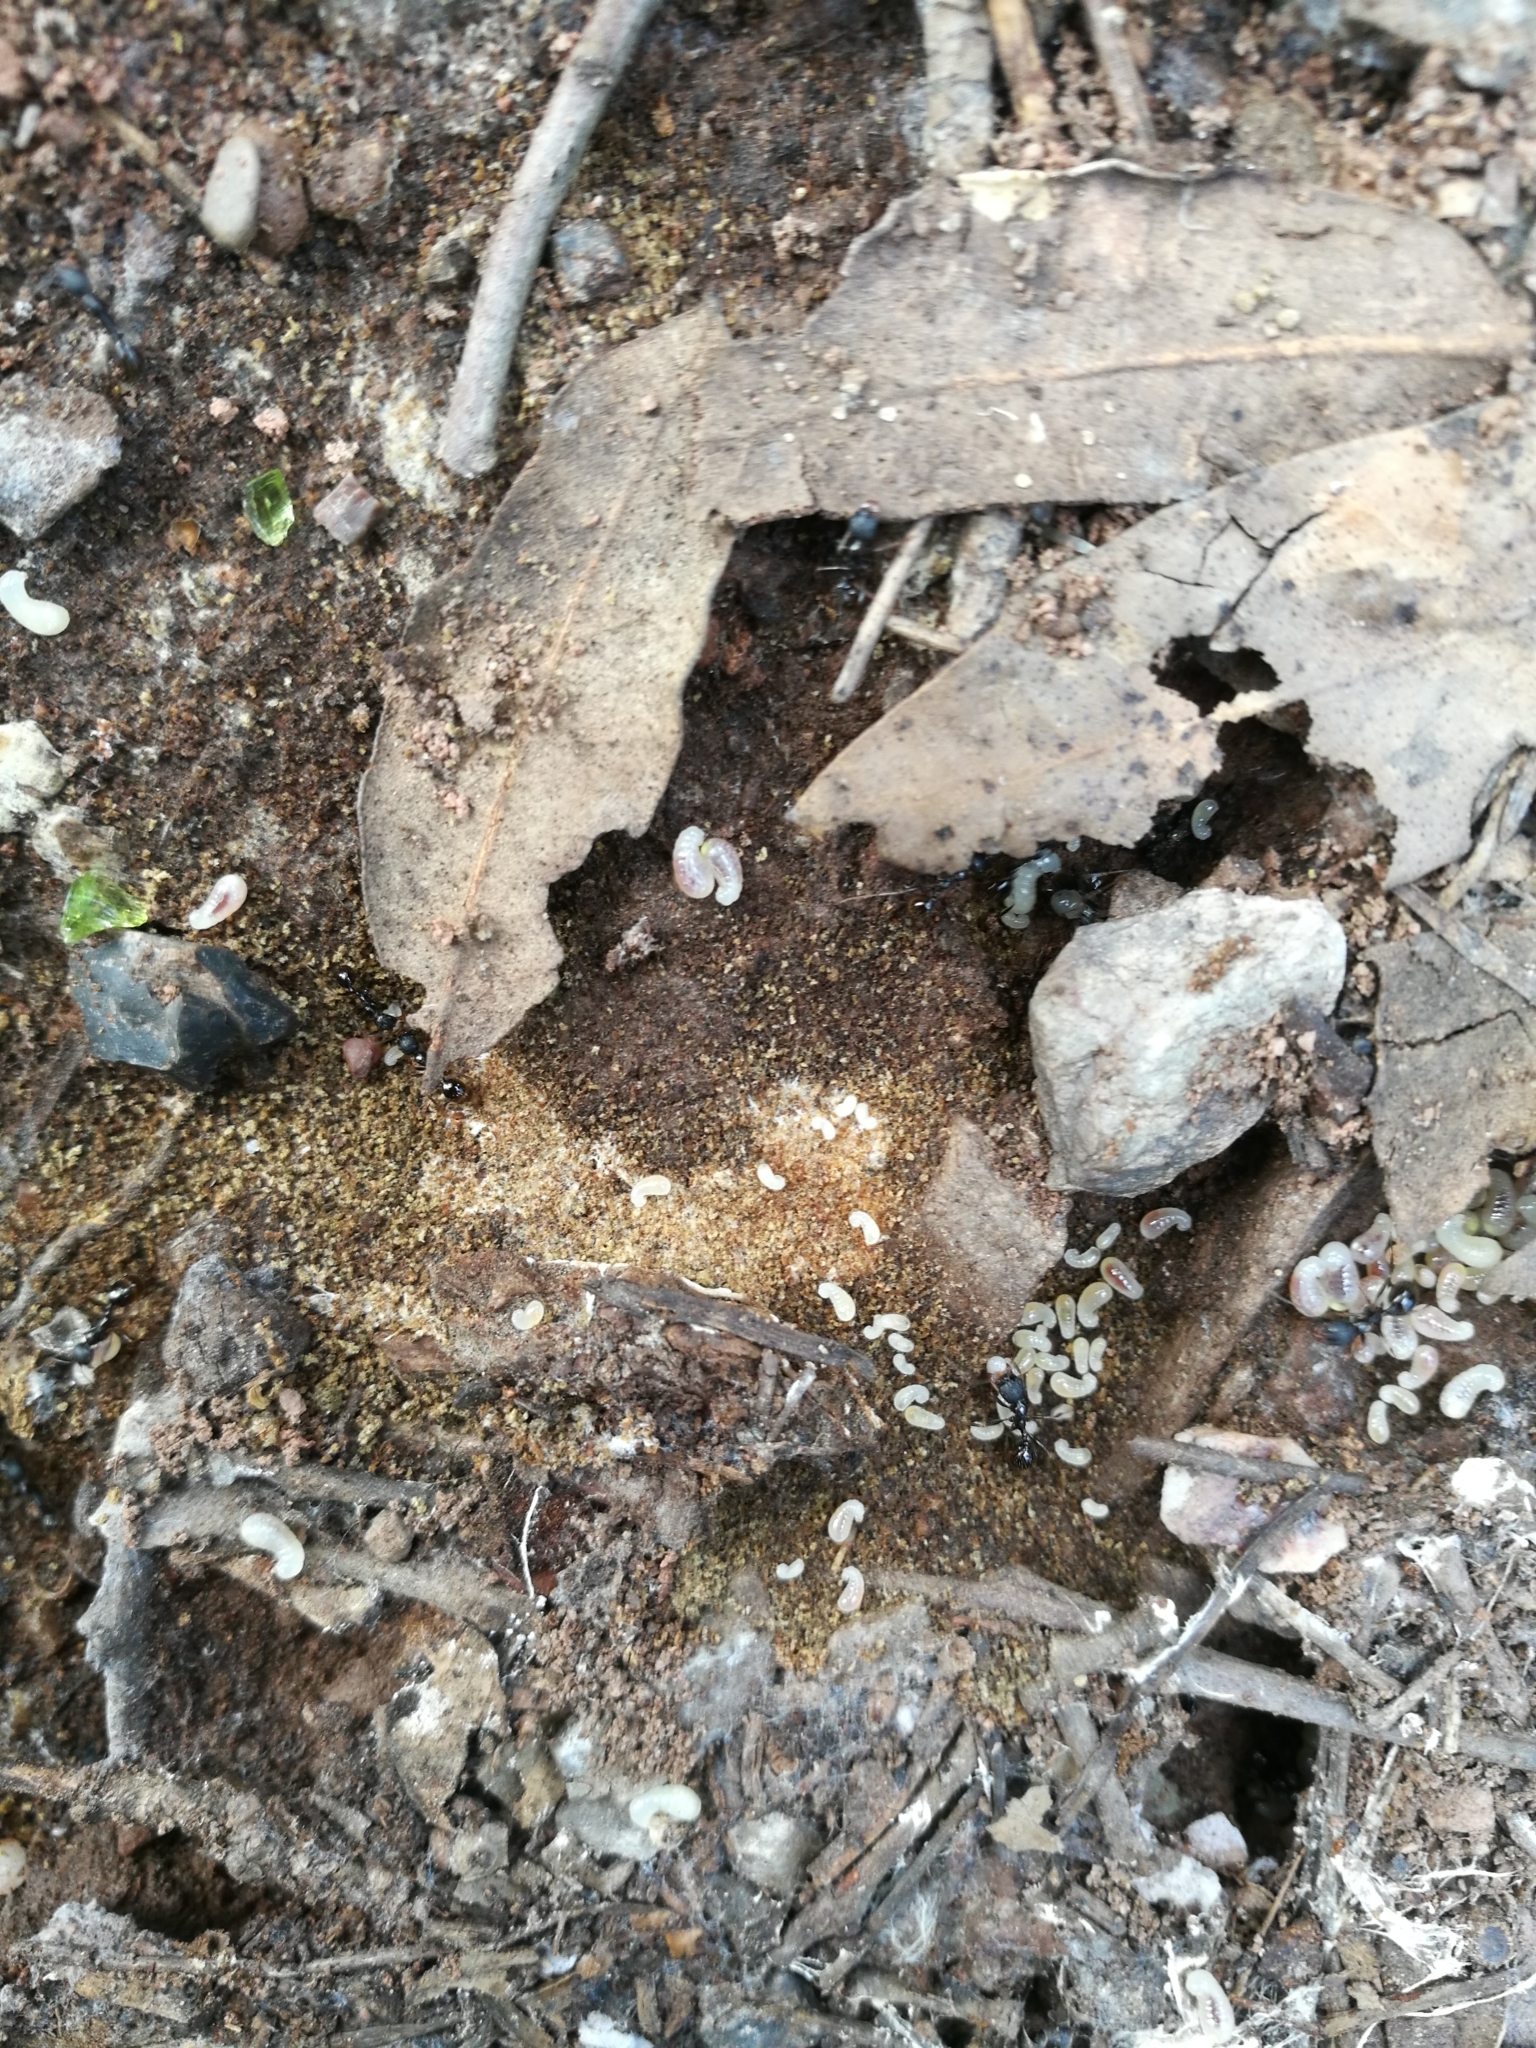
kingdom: Animalia
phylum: Arthropoda
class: Insecta
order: Hymenoptera
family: Formicidae
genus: Aphaenogaster
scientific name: Aphaenogaster gibbosa
